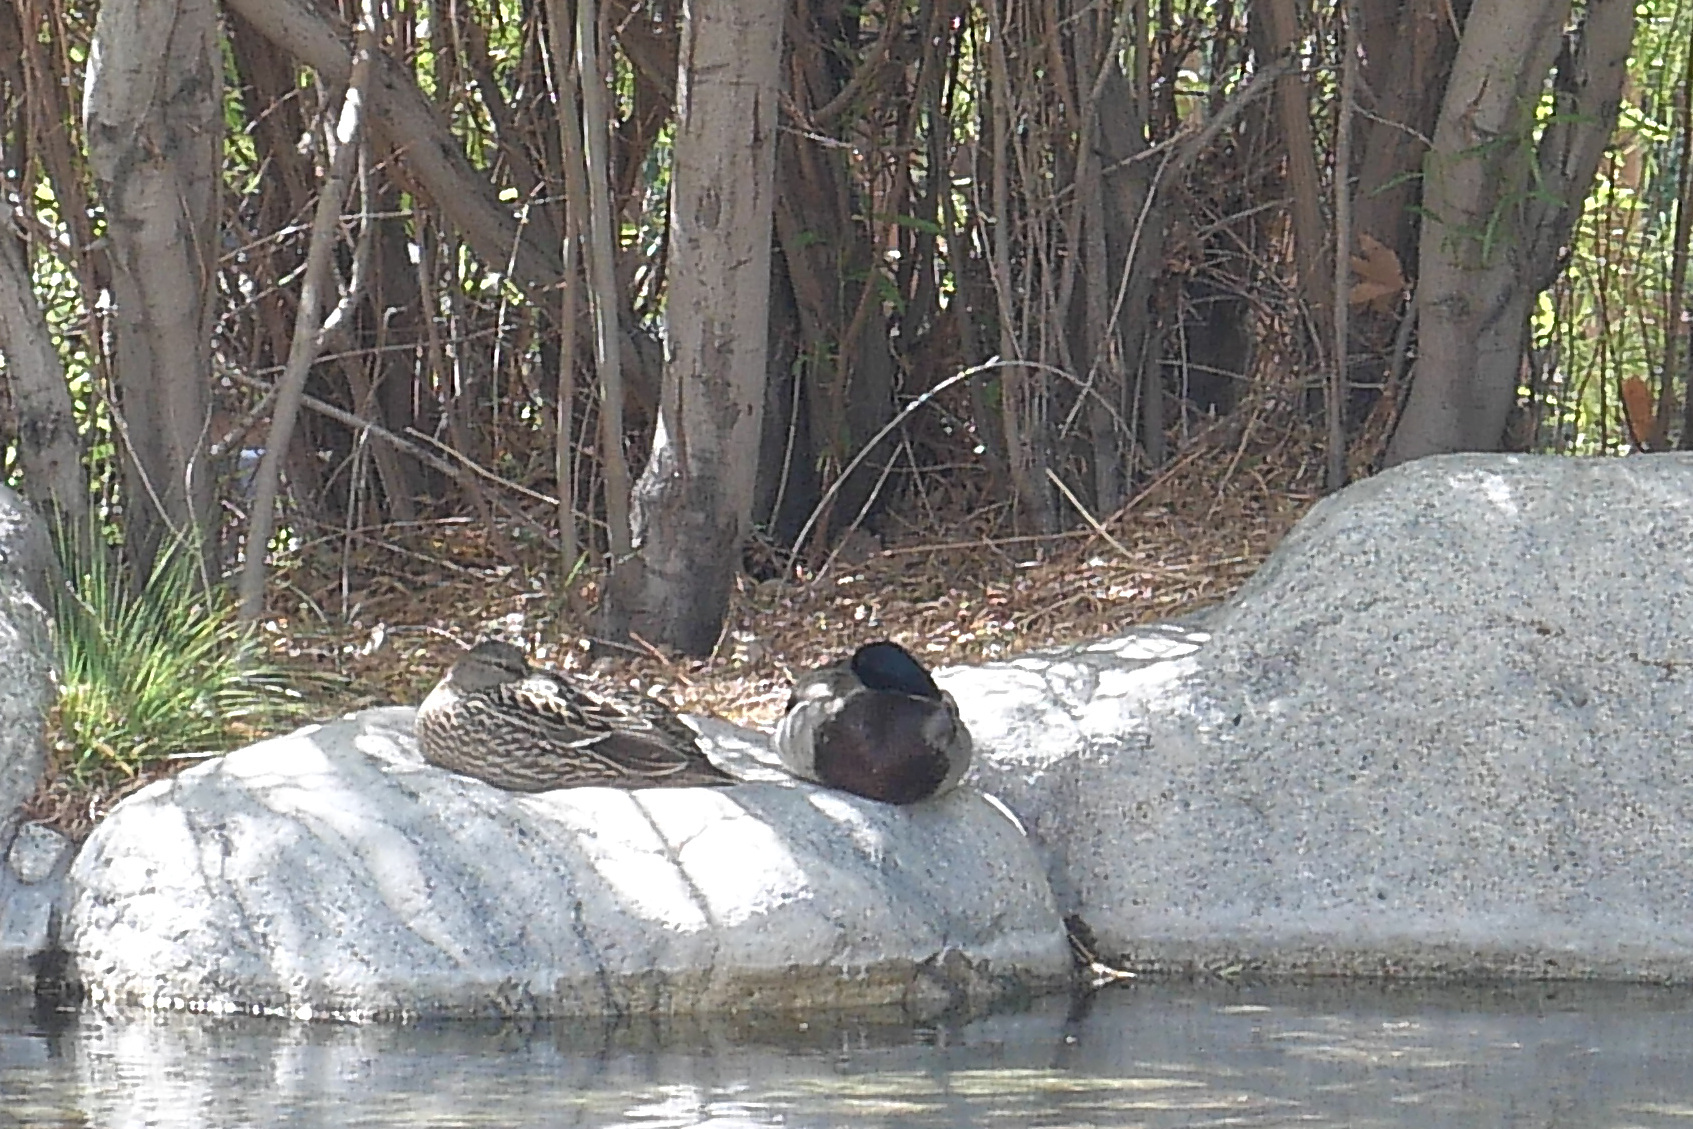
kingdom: Animalia
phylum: Chordata
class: Aves
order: Anseriformes
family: Anatidae
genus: Anas
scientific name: Anas platyrhynchos
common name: Mallard
